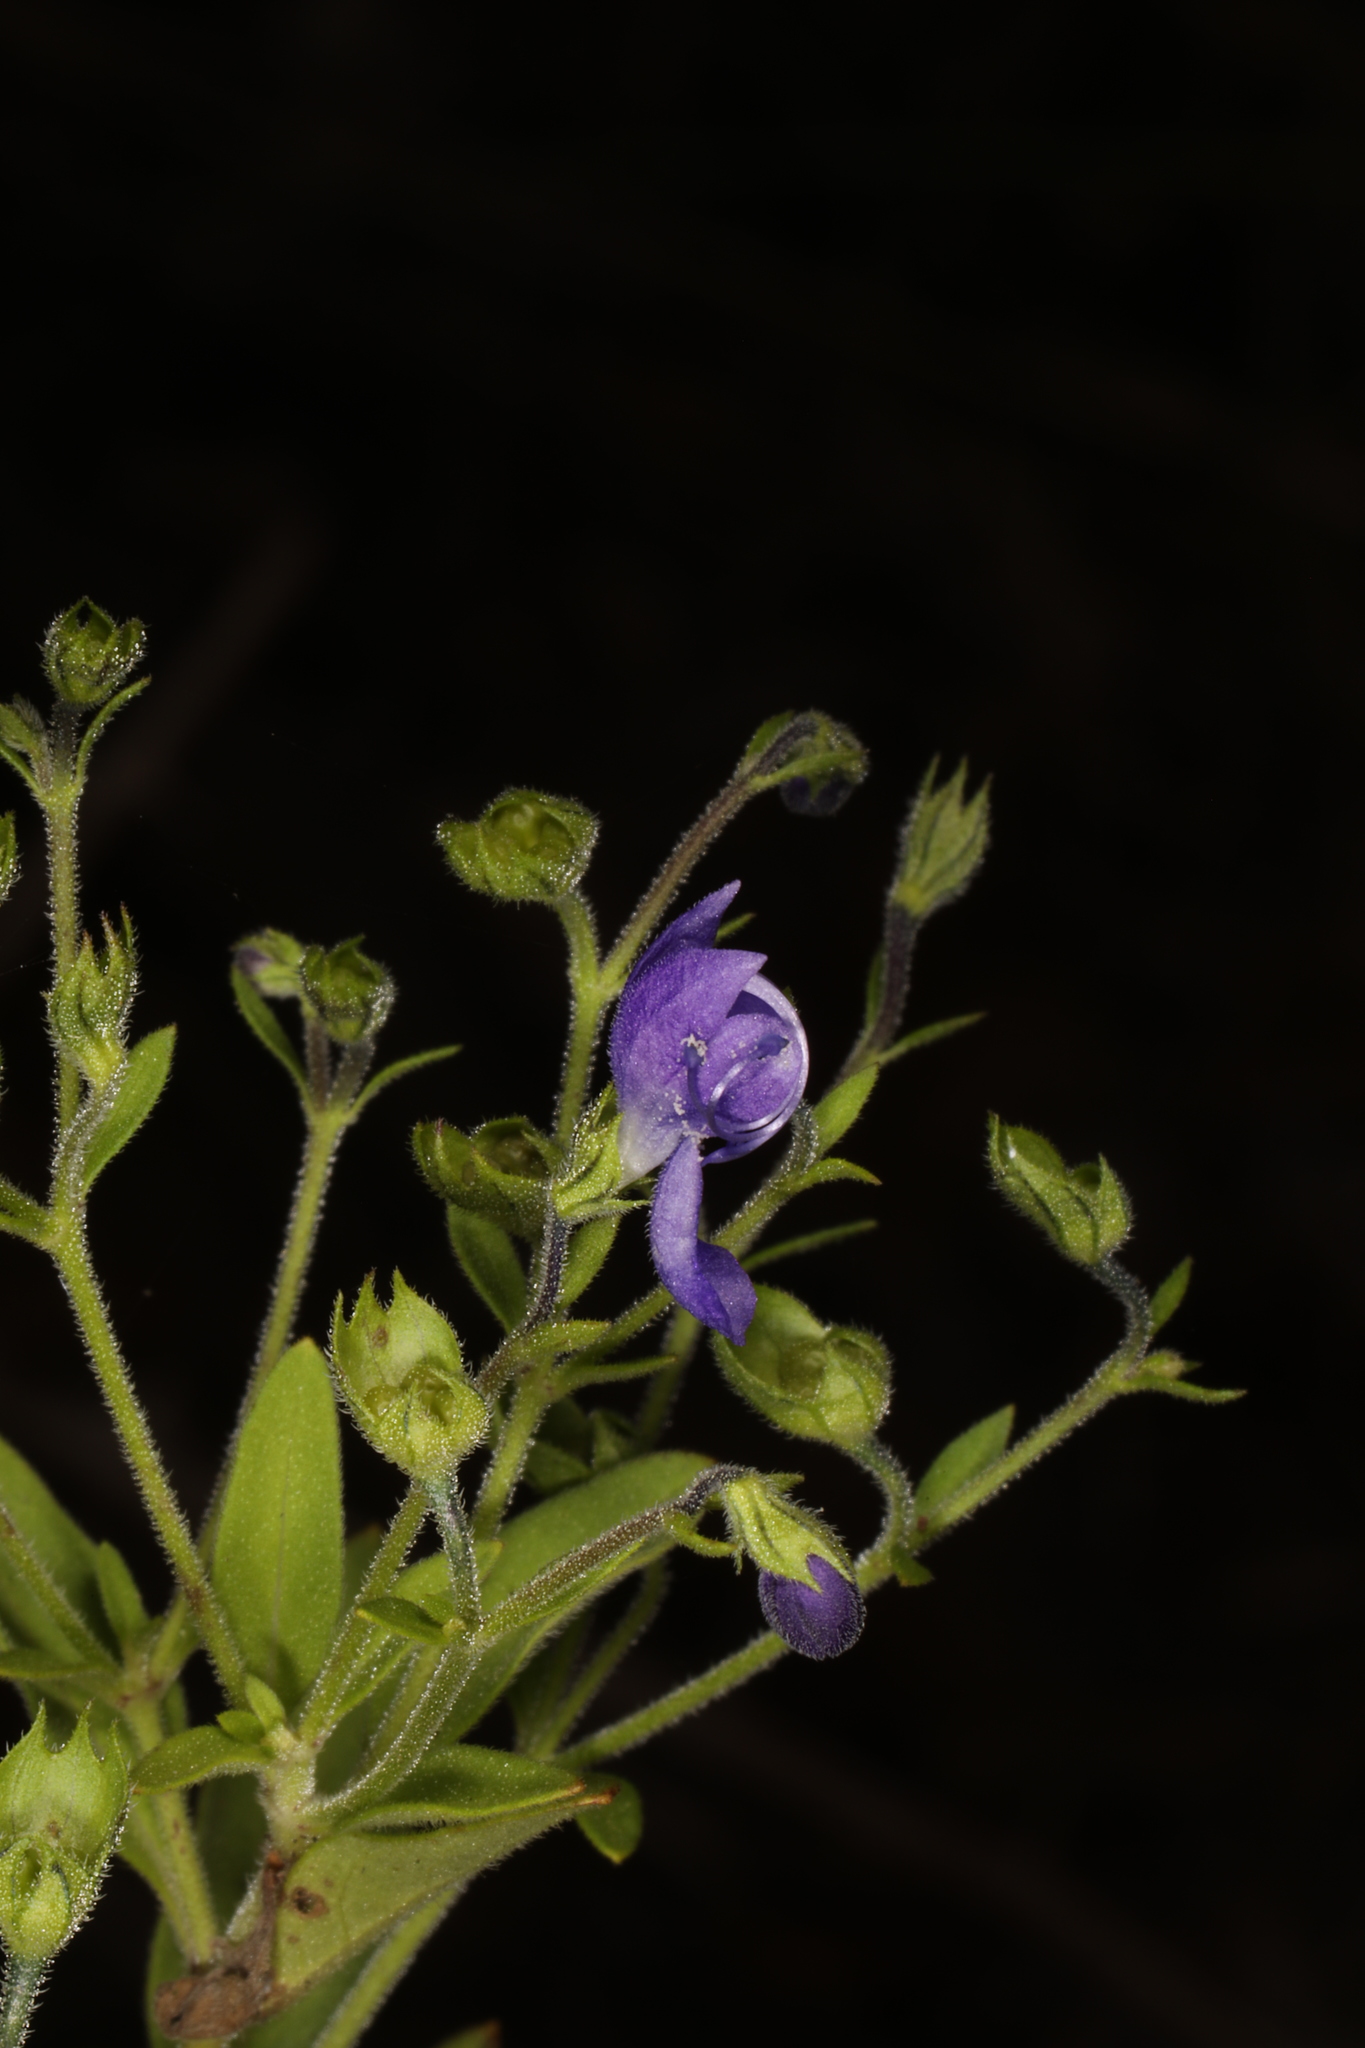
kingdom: Plantae
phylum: Tracheophyta
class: Magnoliopsida
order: Lamiales
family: Lamiaceae
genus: Trichostema
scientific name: Trichostema dichotomum
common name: Bastard pennyroyal
